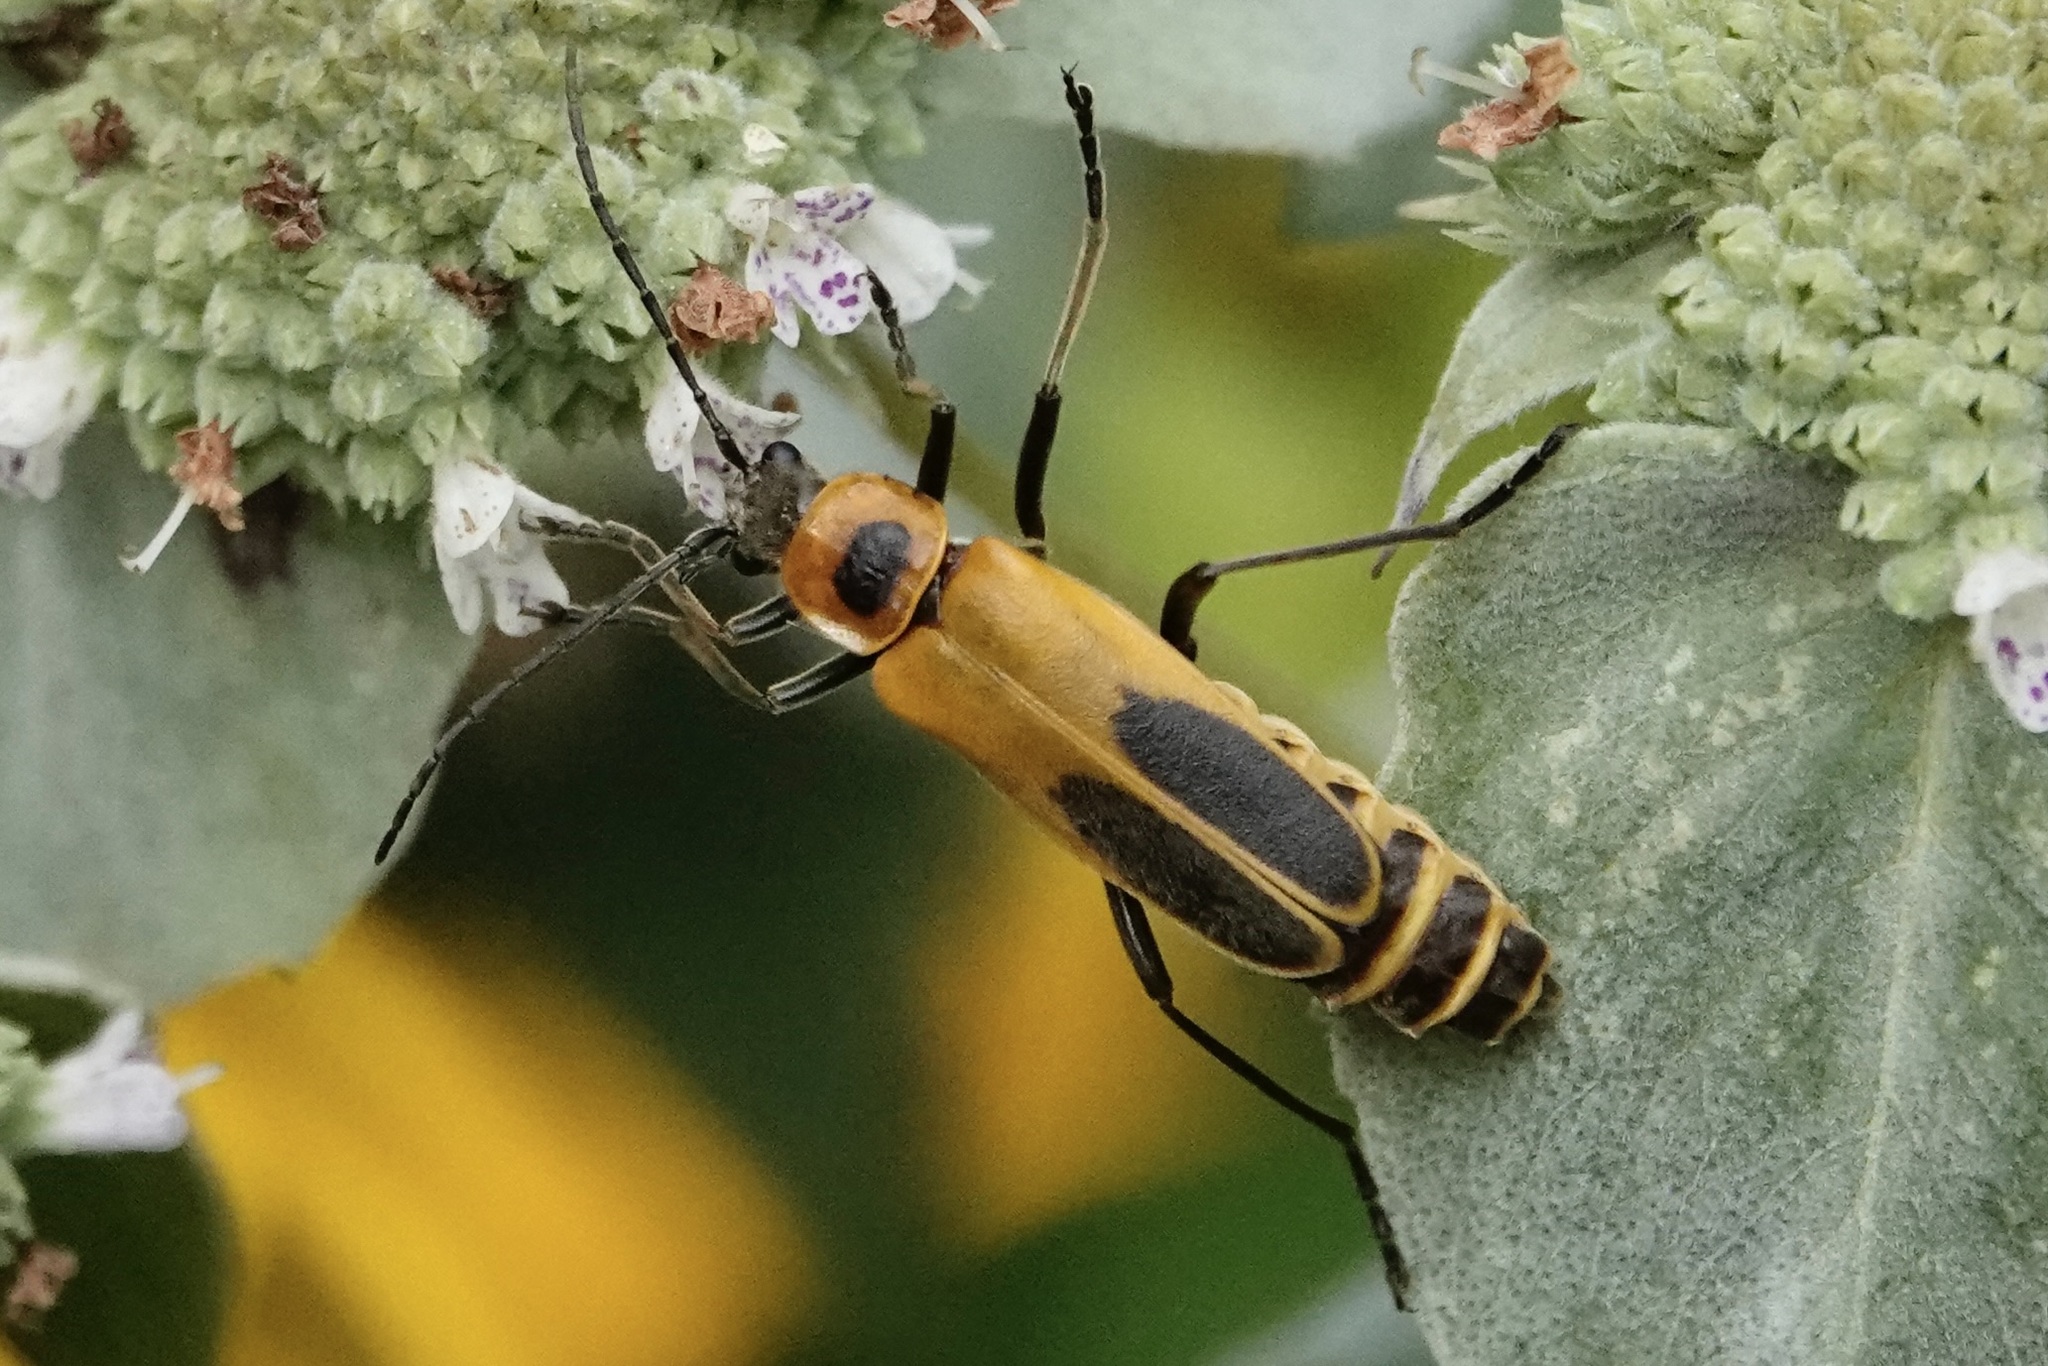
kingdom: Animalia
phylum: Arthropoda
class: Insecta
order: Coleoptera
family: Cantharidae
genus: Chauliognathus
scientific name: Chauliognathus pensylvanicus
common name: Goldenrod soldier beetle
